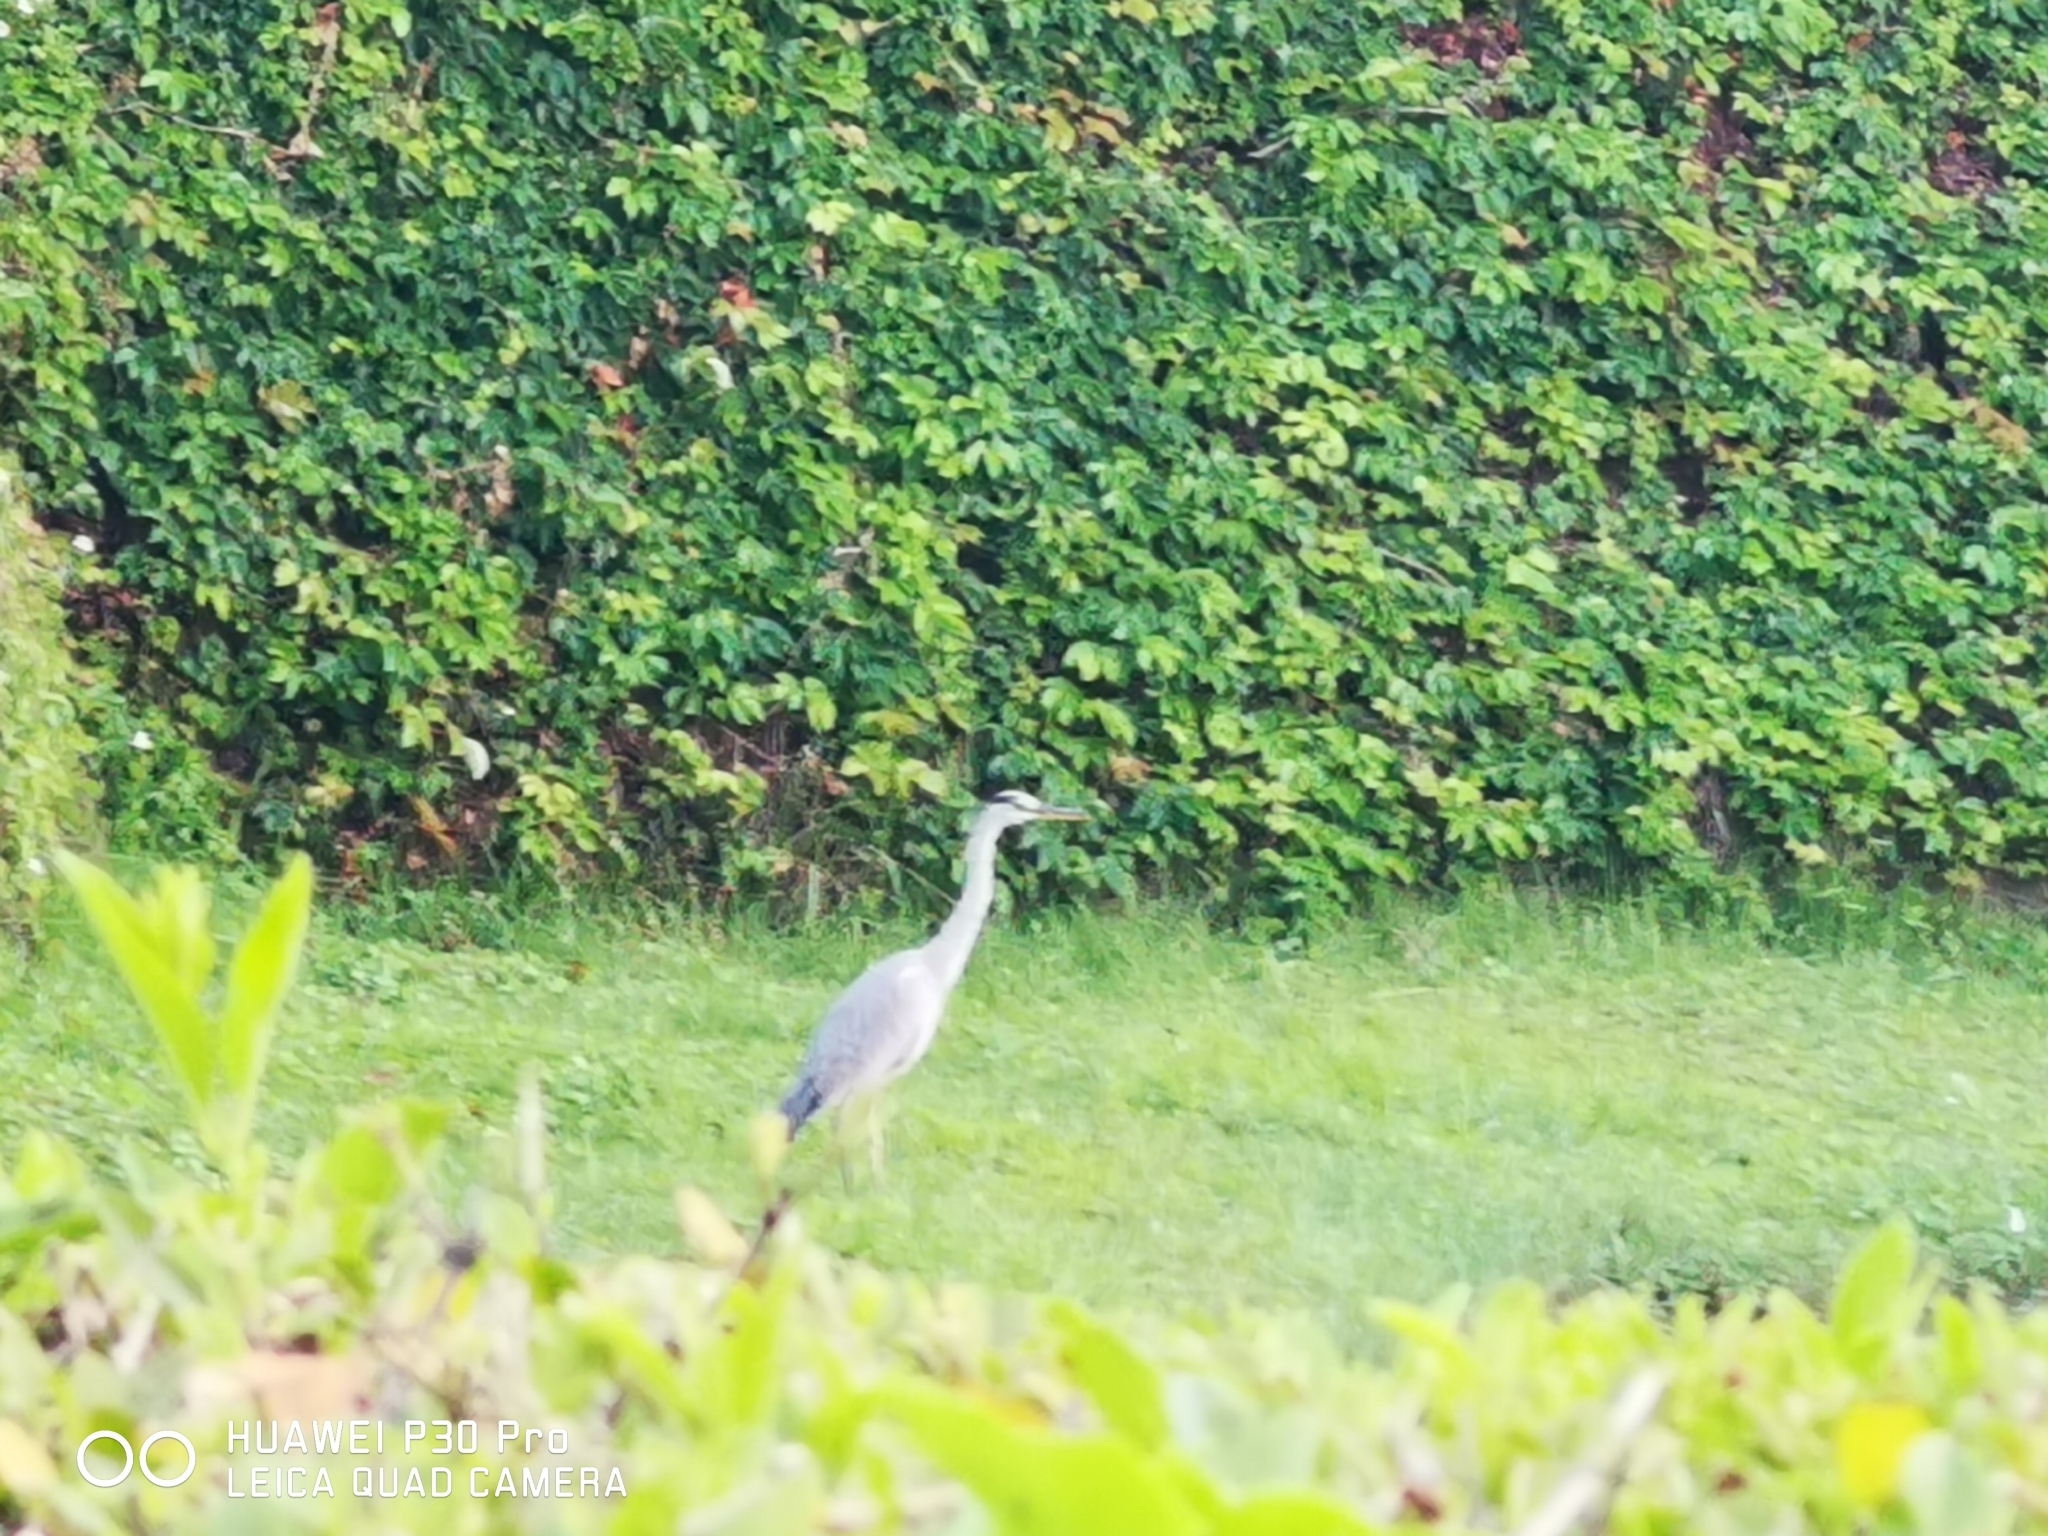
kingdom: Animalia
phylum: Chordata
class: Aves
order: Pelecaniformes
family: Ardeidae
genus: Ardea
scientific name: Ardea cinerea
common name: Grey heron
